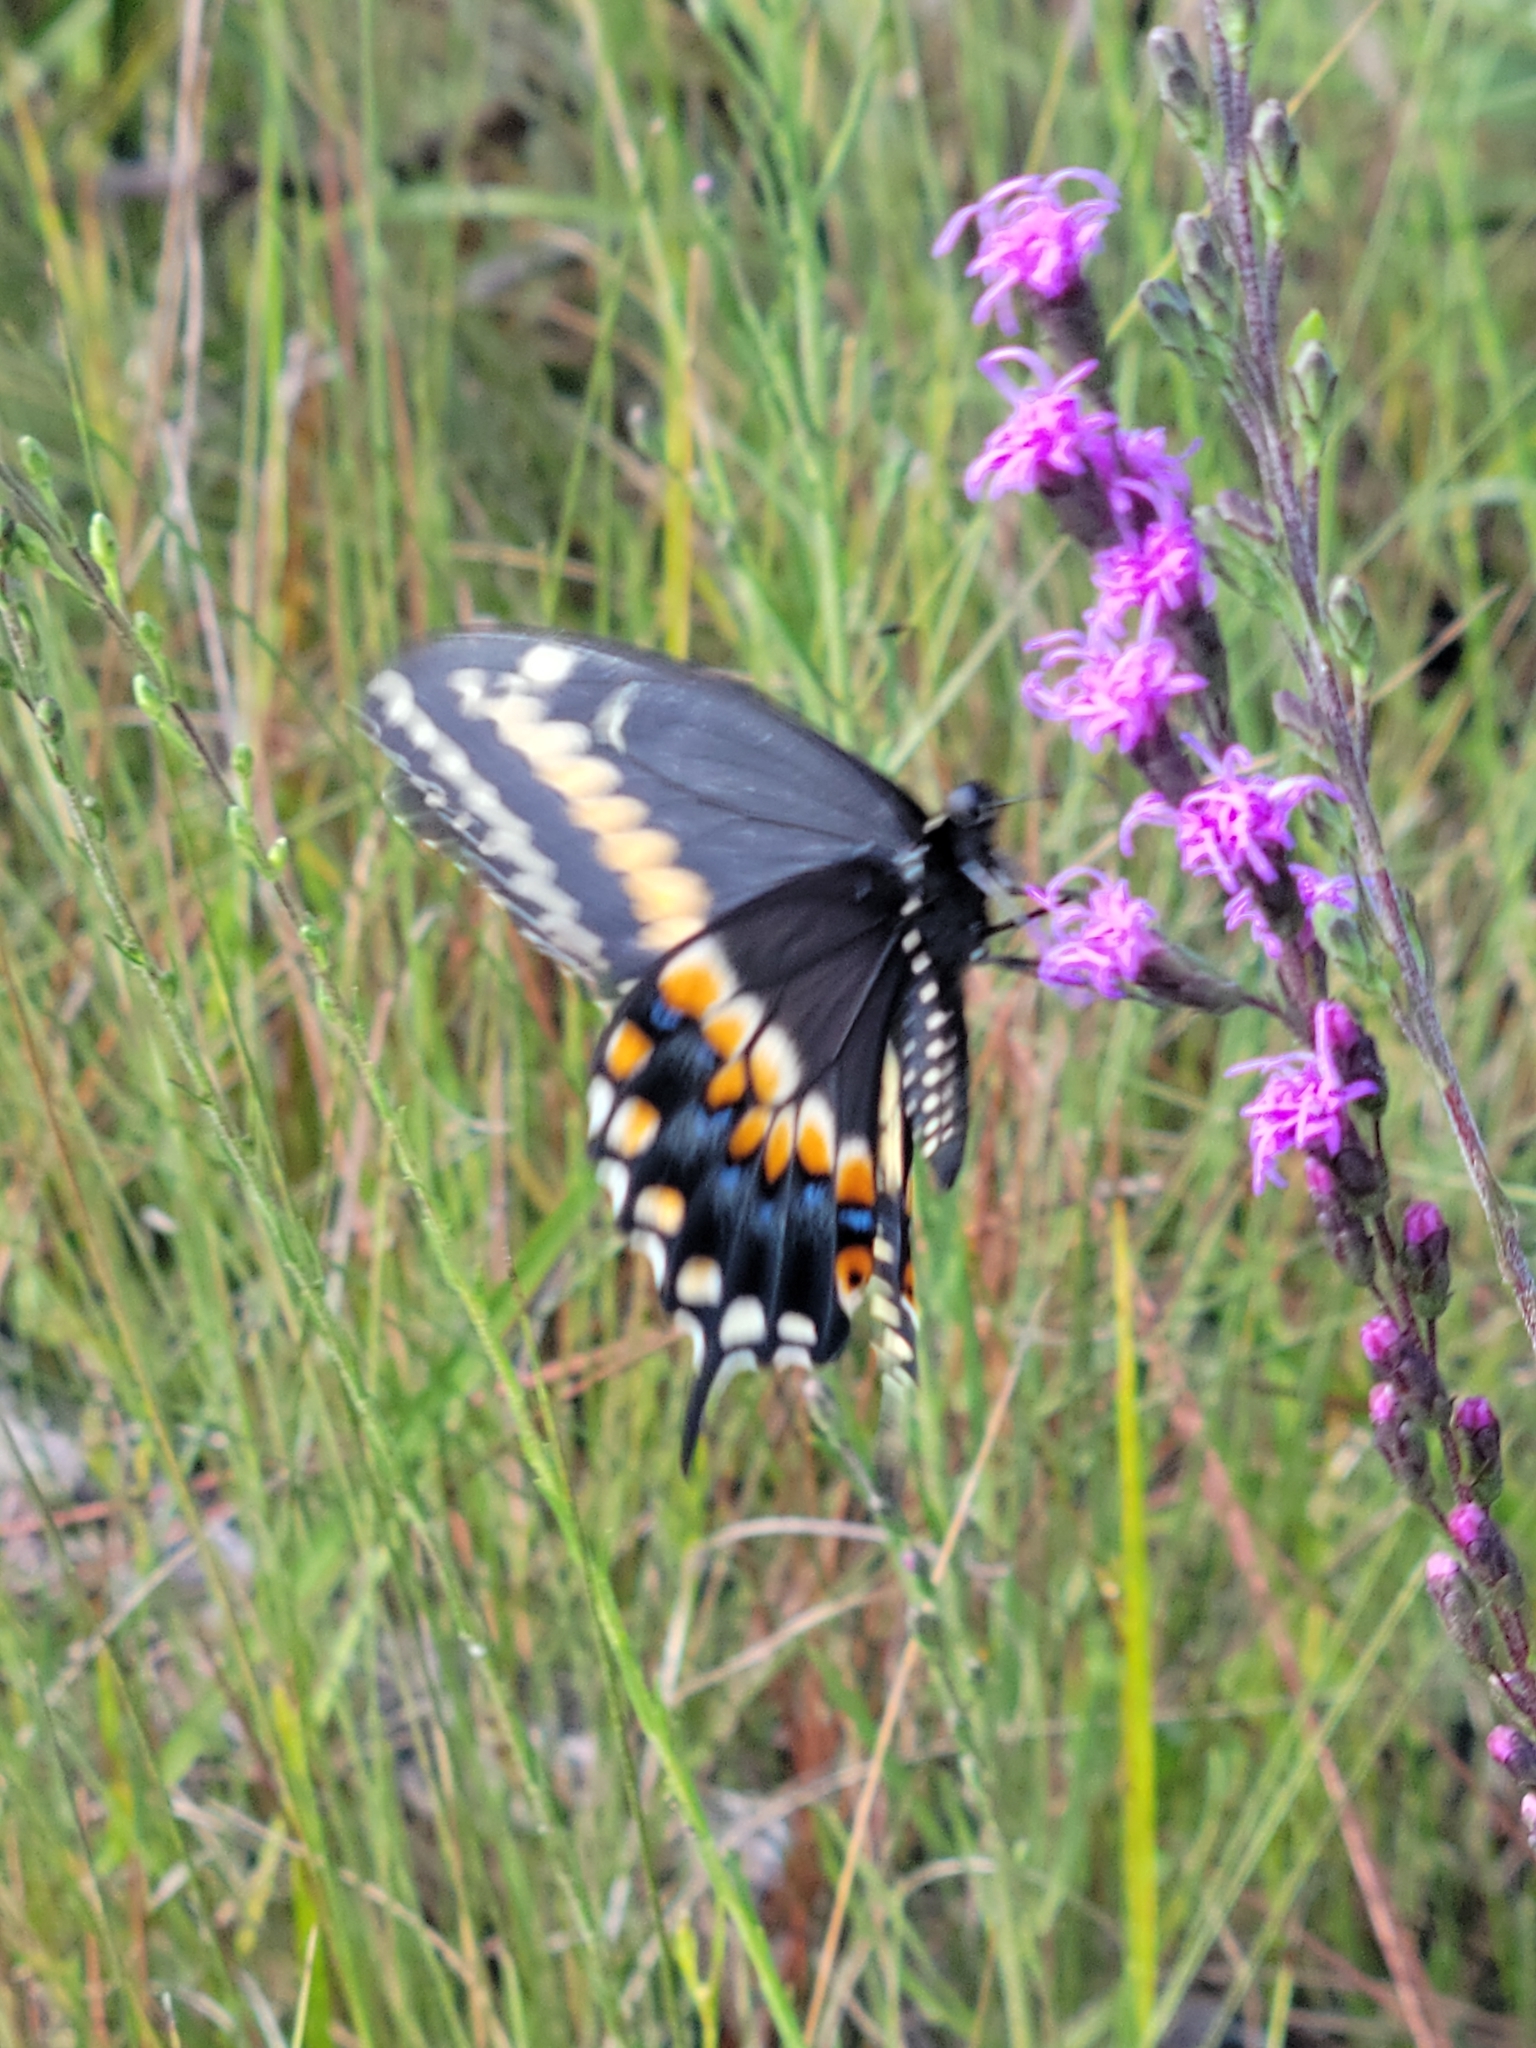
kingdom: Animalia
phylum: Arthropoda
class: Insecta
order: Lepidoptera
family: Papilionidae
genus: Papilio
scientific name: Papilio polyxenes
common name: Black swallowtail
